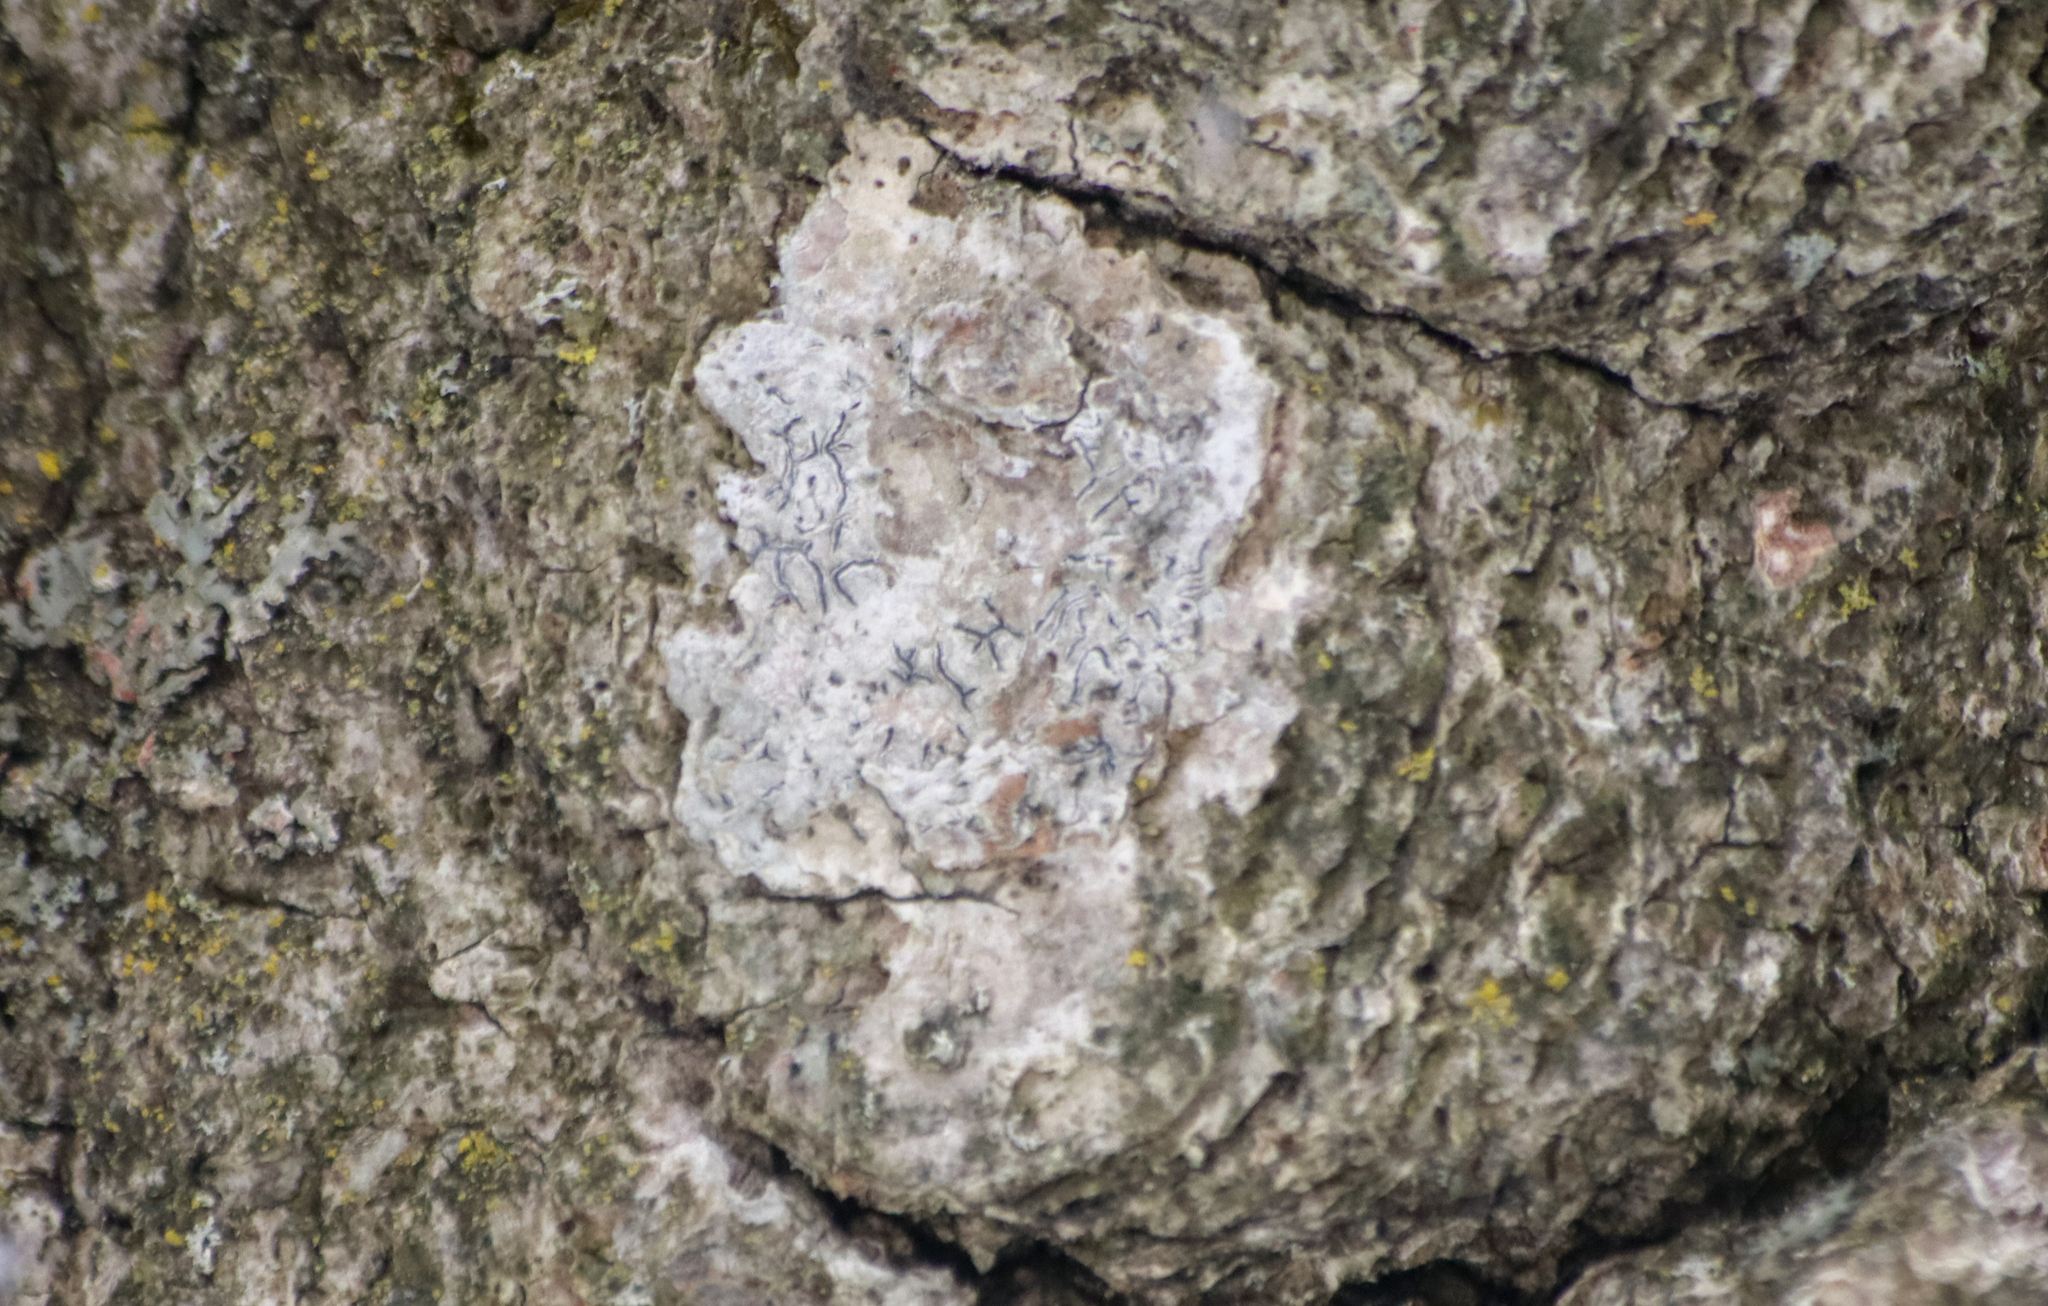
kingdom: Fungi
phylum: Ascomycota
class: Lecanoromycetes
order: Ostropales
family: Graphidaceae
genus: Graphis
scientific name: Graphis scripta
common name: Script lichen
